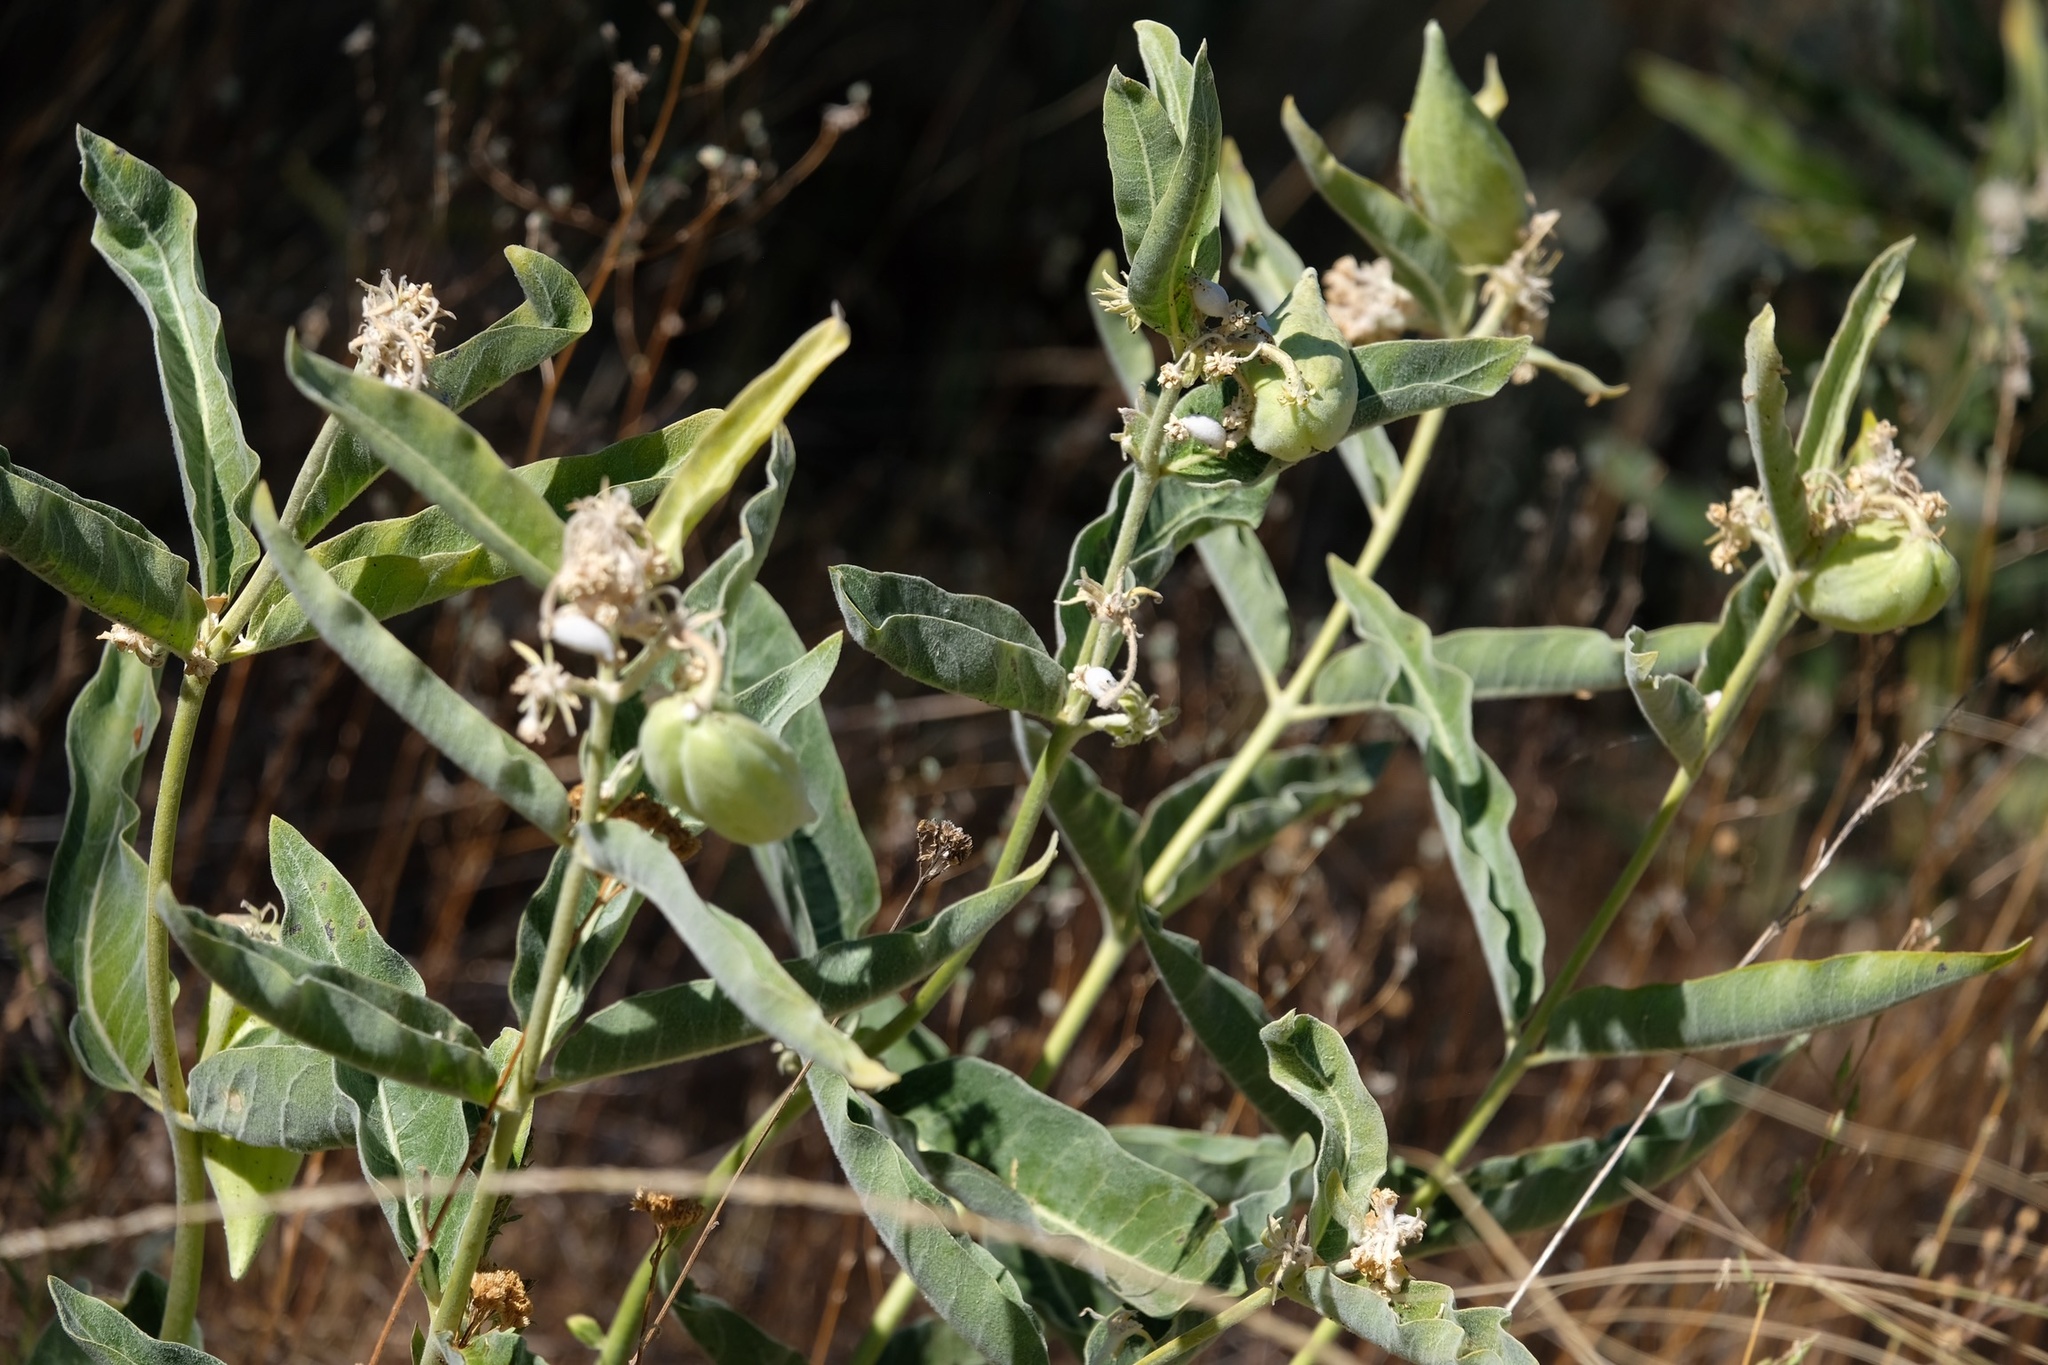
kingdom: Plantae
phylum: Tracheophyta
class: Magnoliopsida
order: Gentianales
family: Apocynaceae
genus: Asclepias
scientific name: Asclepias eriocarpa
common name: Indian milkweed
